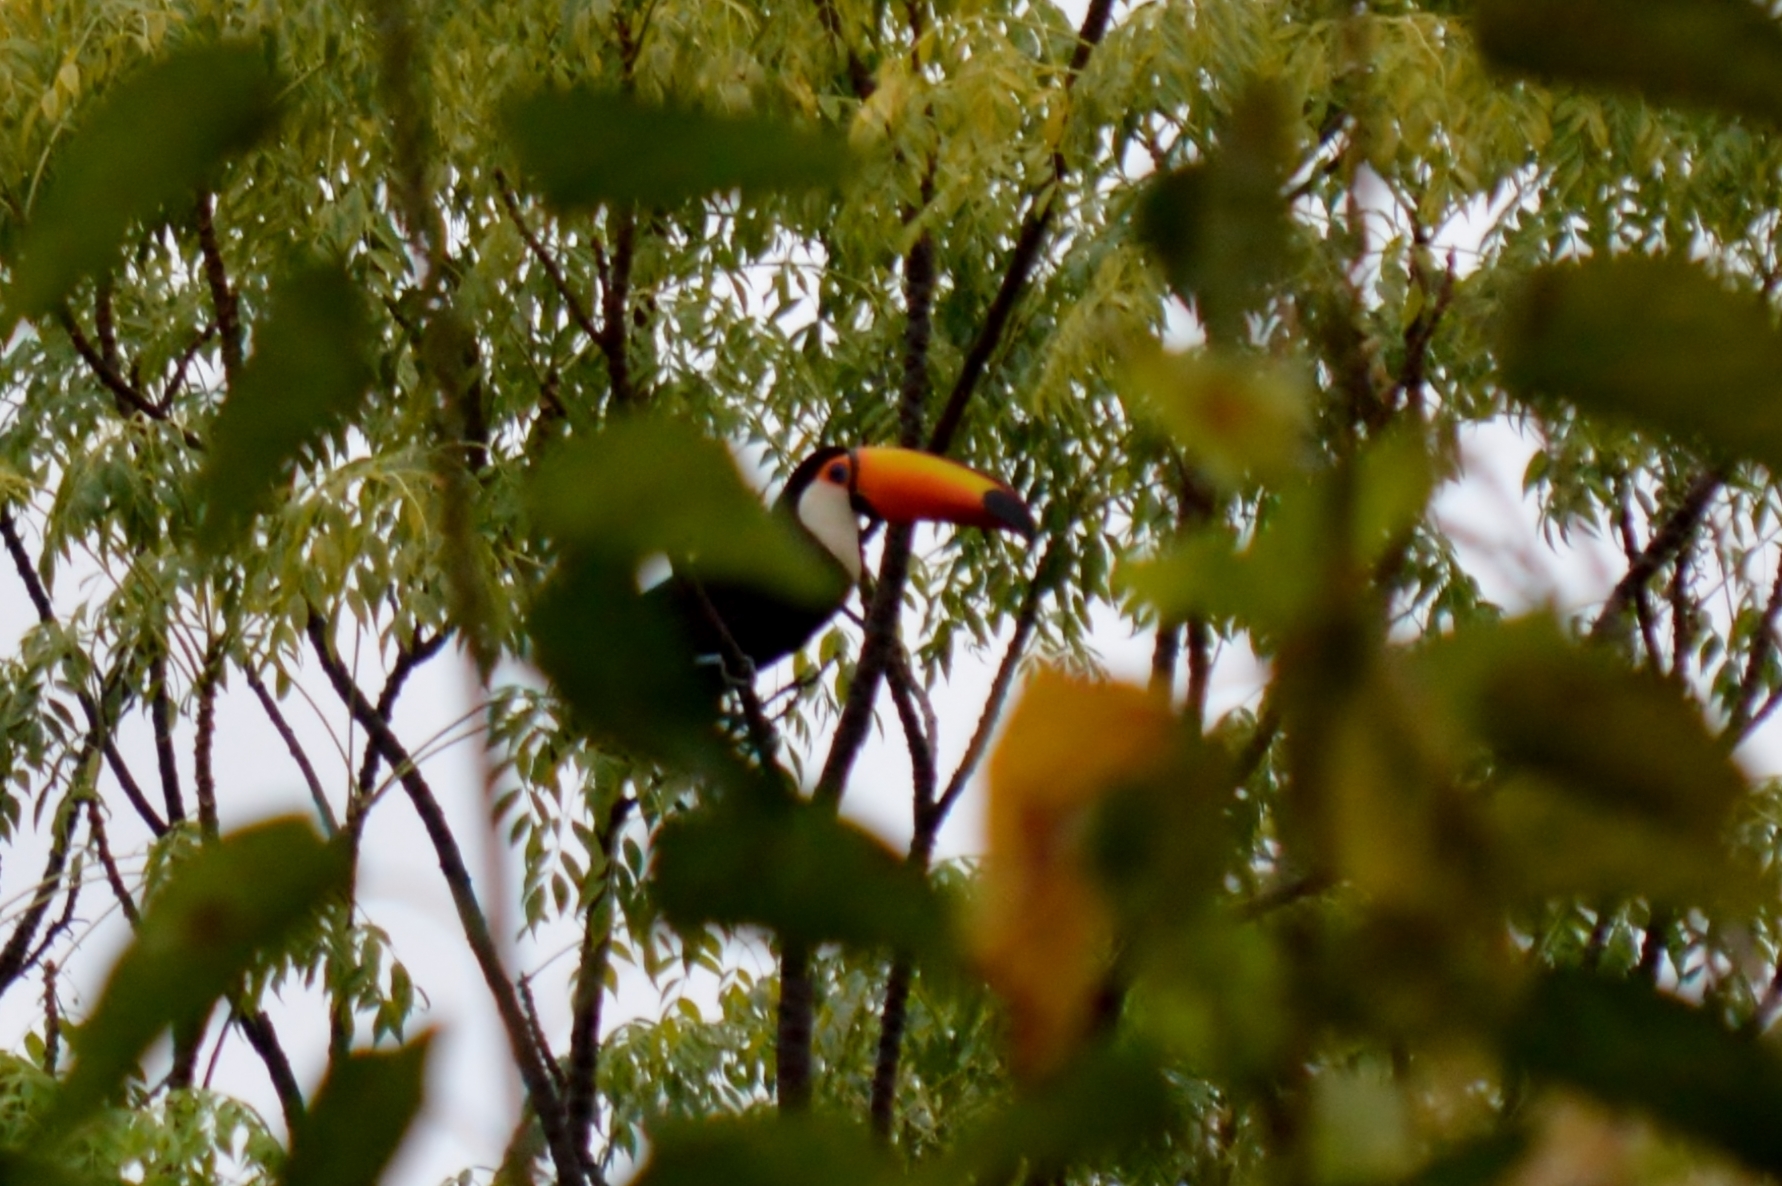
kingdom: Animalia
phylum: Chordata
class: Aves
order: Piciformes
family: Ramphastidae
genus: Ramphastos
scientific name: Ramphastos toco
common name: Toco toucan
